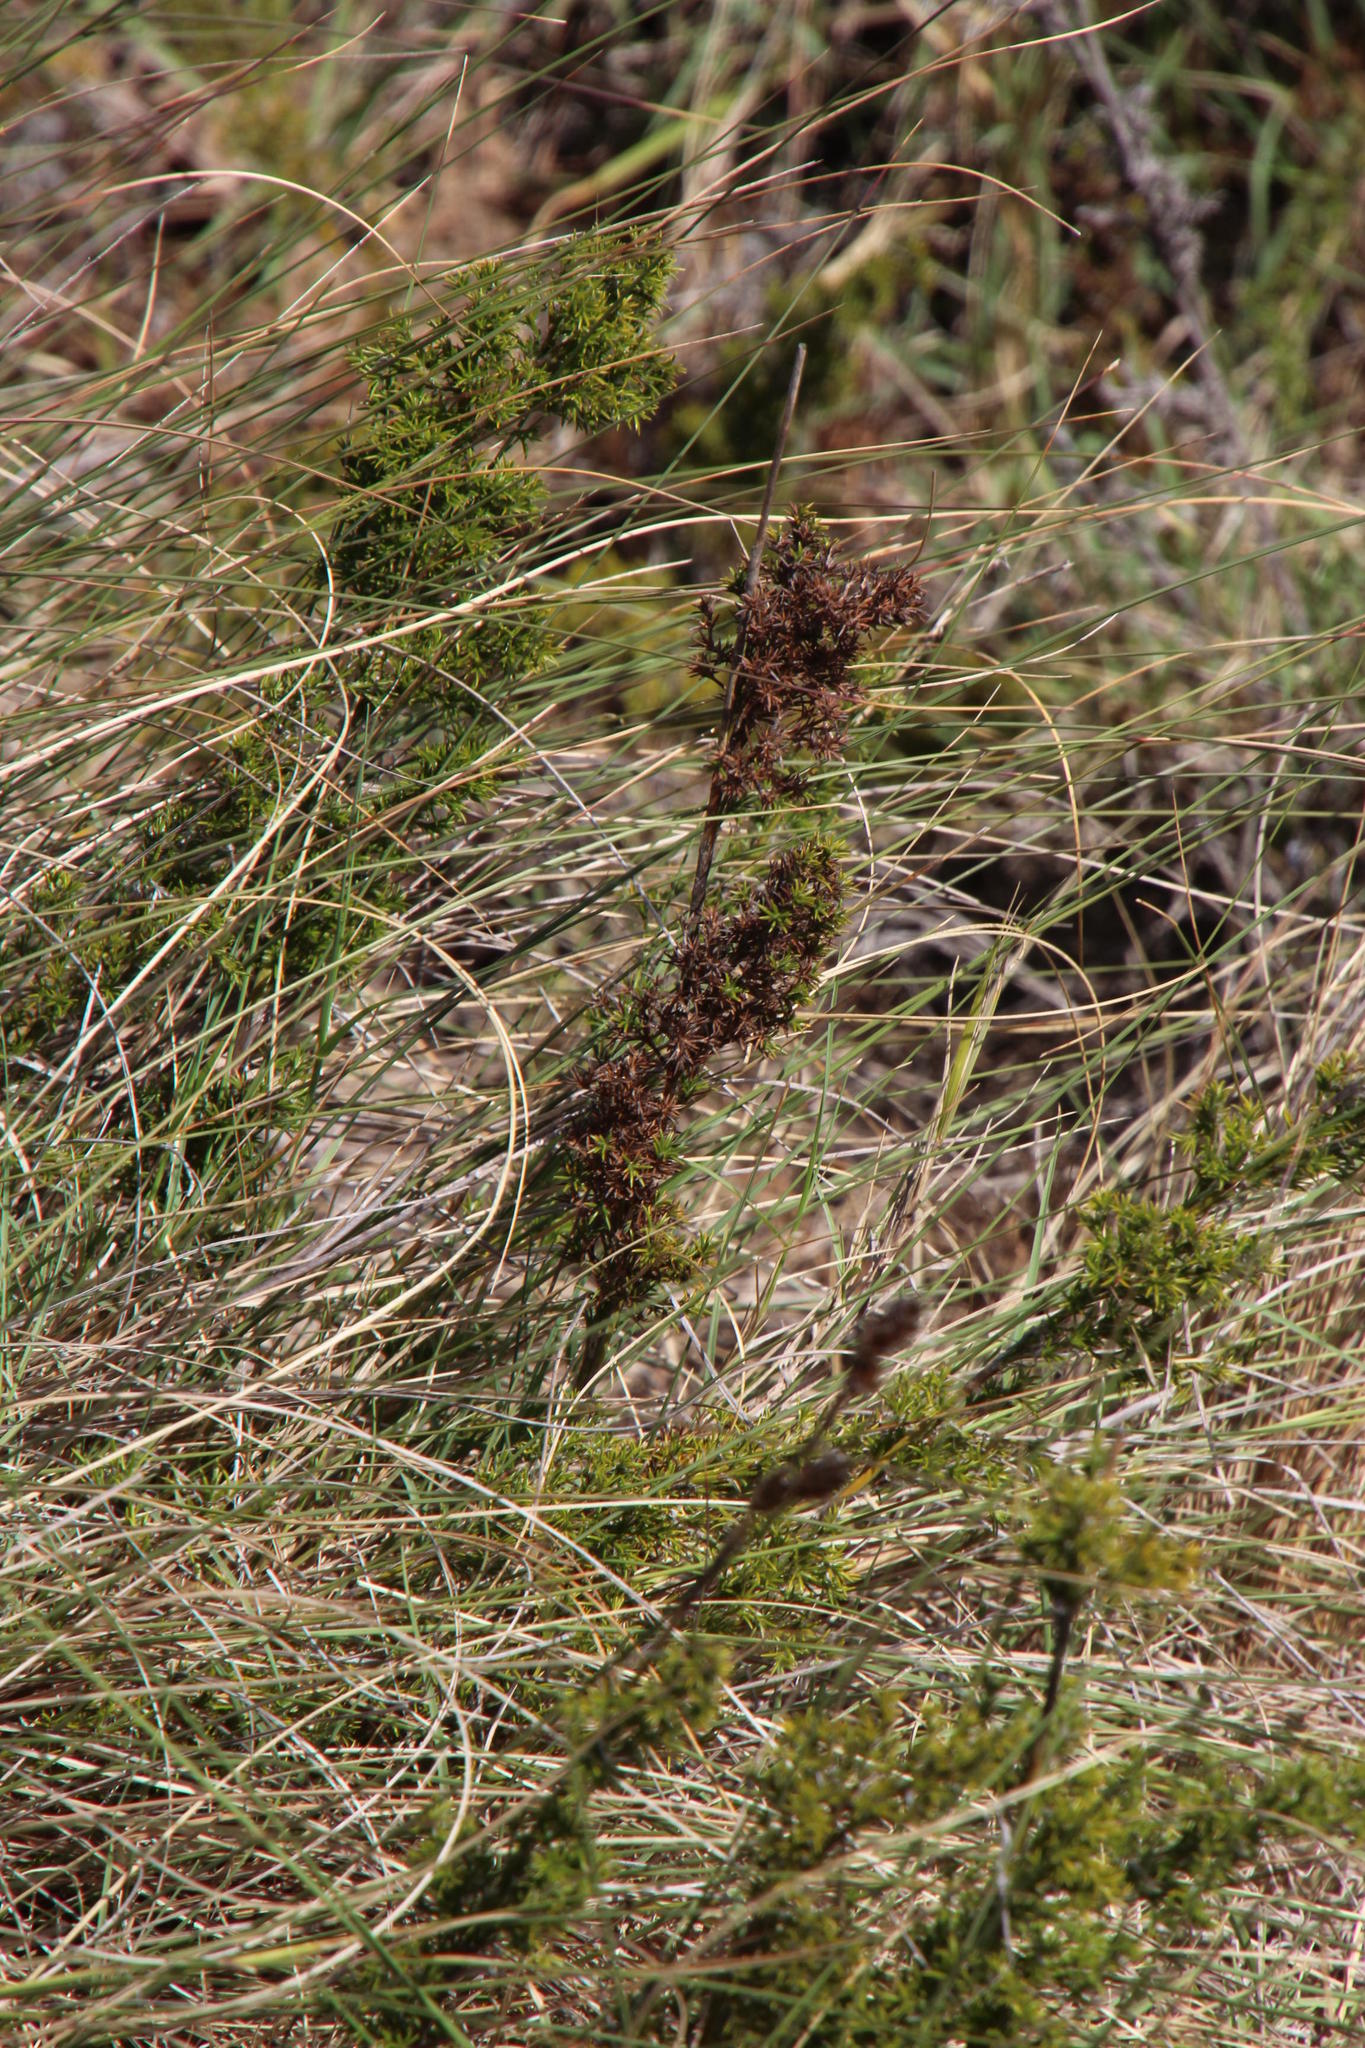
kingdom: Plantae
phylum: Tracheophyta
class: Liliopsida
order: Poales
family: Restionaceae
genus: Thamnochortus
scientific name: Thamnochortus fruticosus
